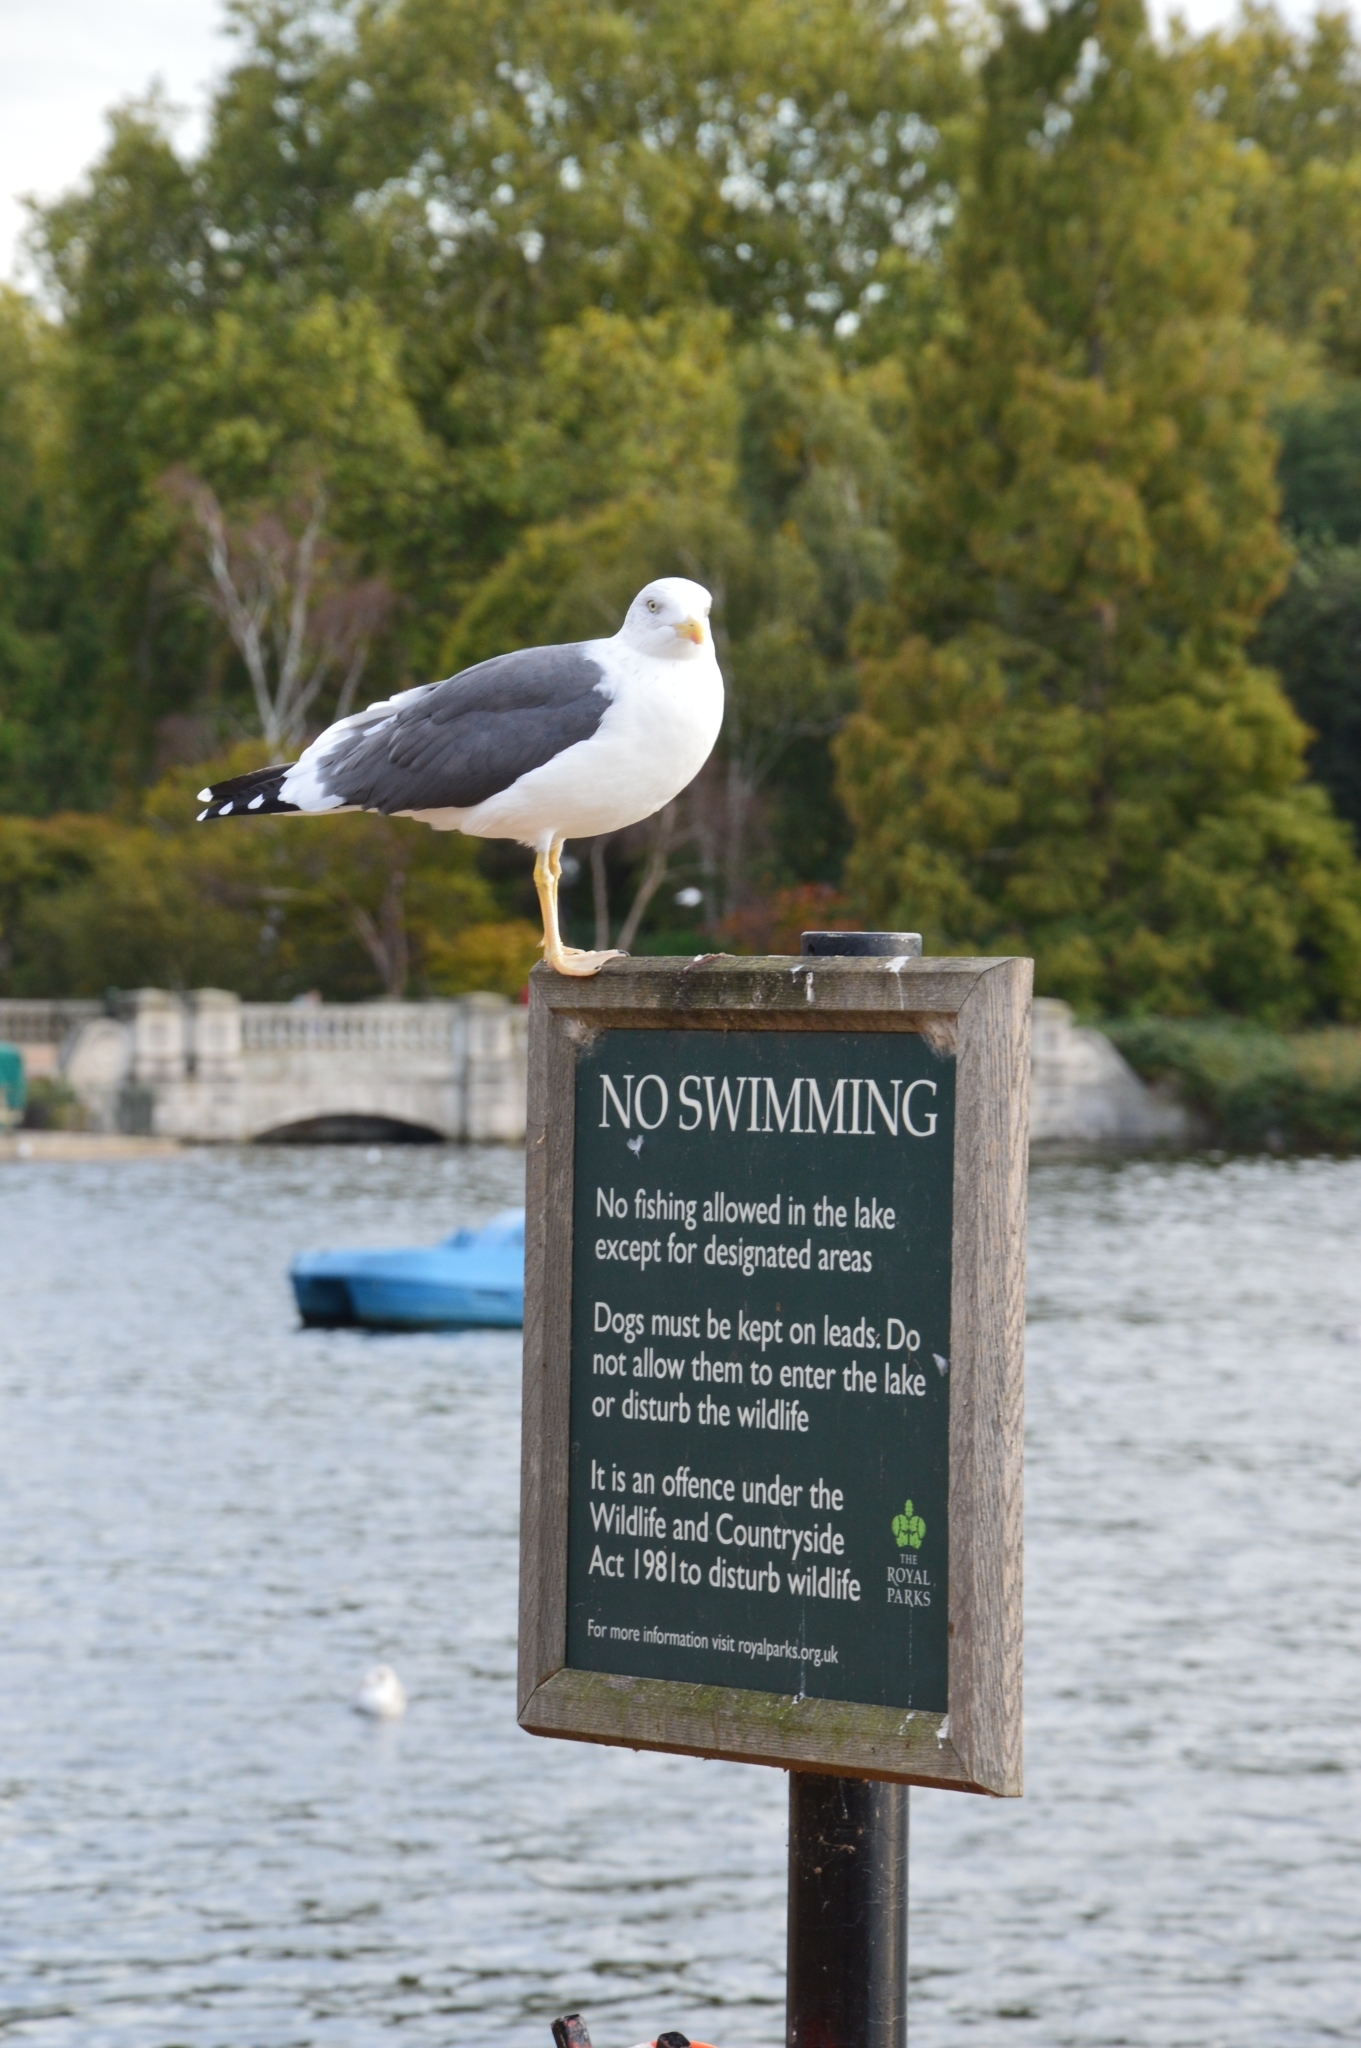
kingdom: Animalia
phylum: Chordata
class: Aves
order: Charadriiformes
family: Laridae
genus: Larus
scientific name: Larus fuscus
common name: Lesser black-backed gull
